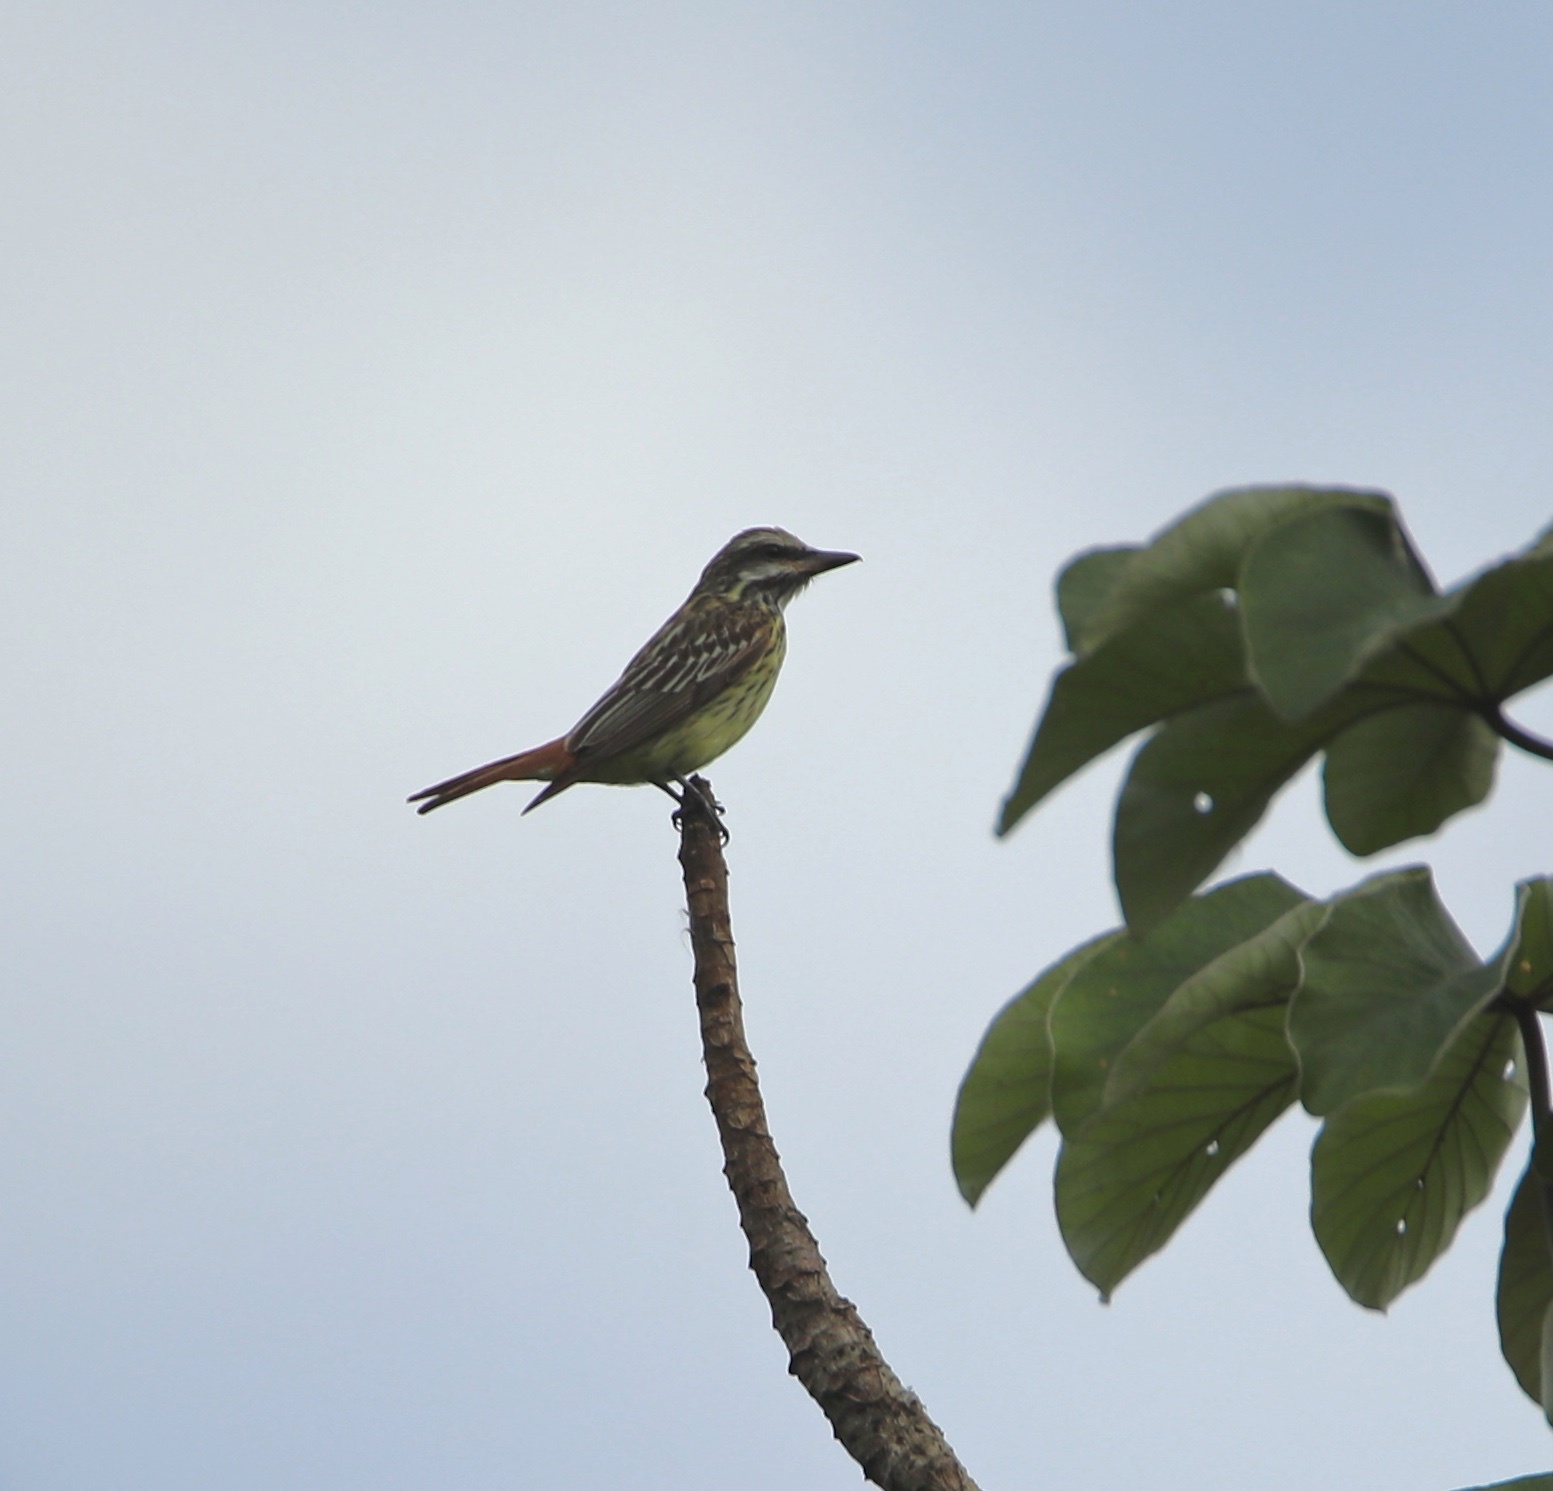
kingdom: Animalia
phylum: Chordata
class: Aves
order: Passeriformes
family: Tyrannidae
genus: Myiodynastes
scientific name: Myiodynastes luteiventris
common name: Sulphur-bellied flycatcher
